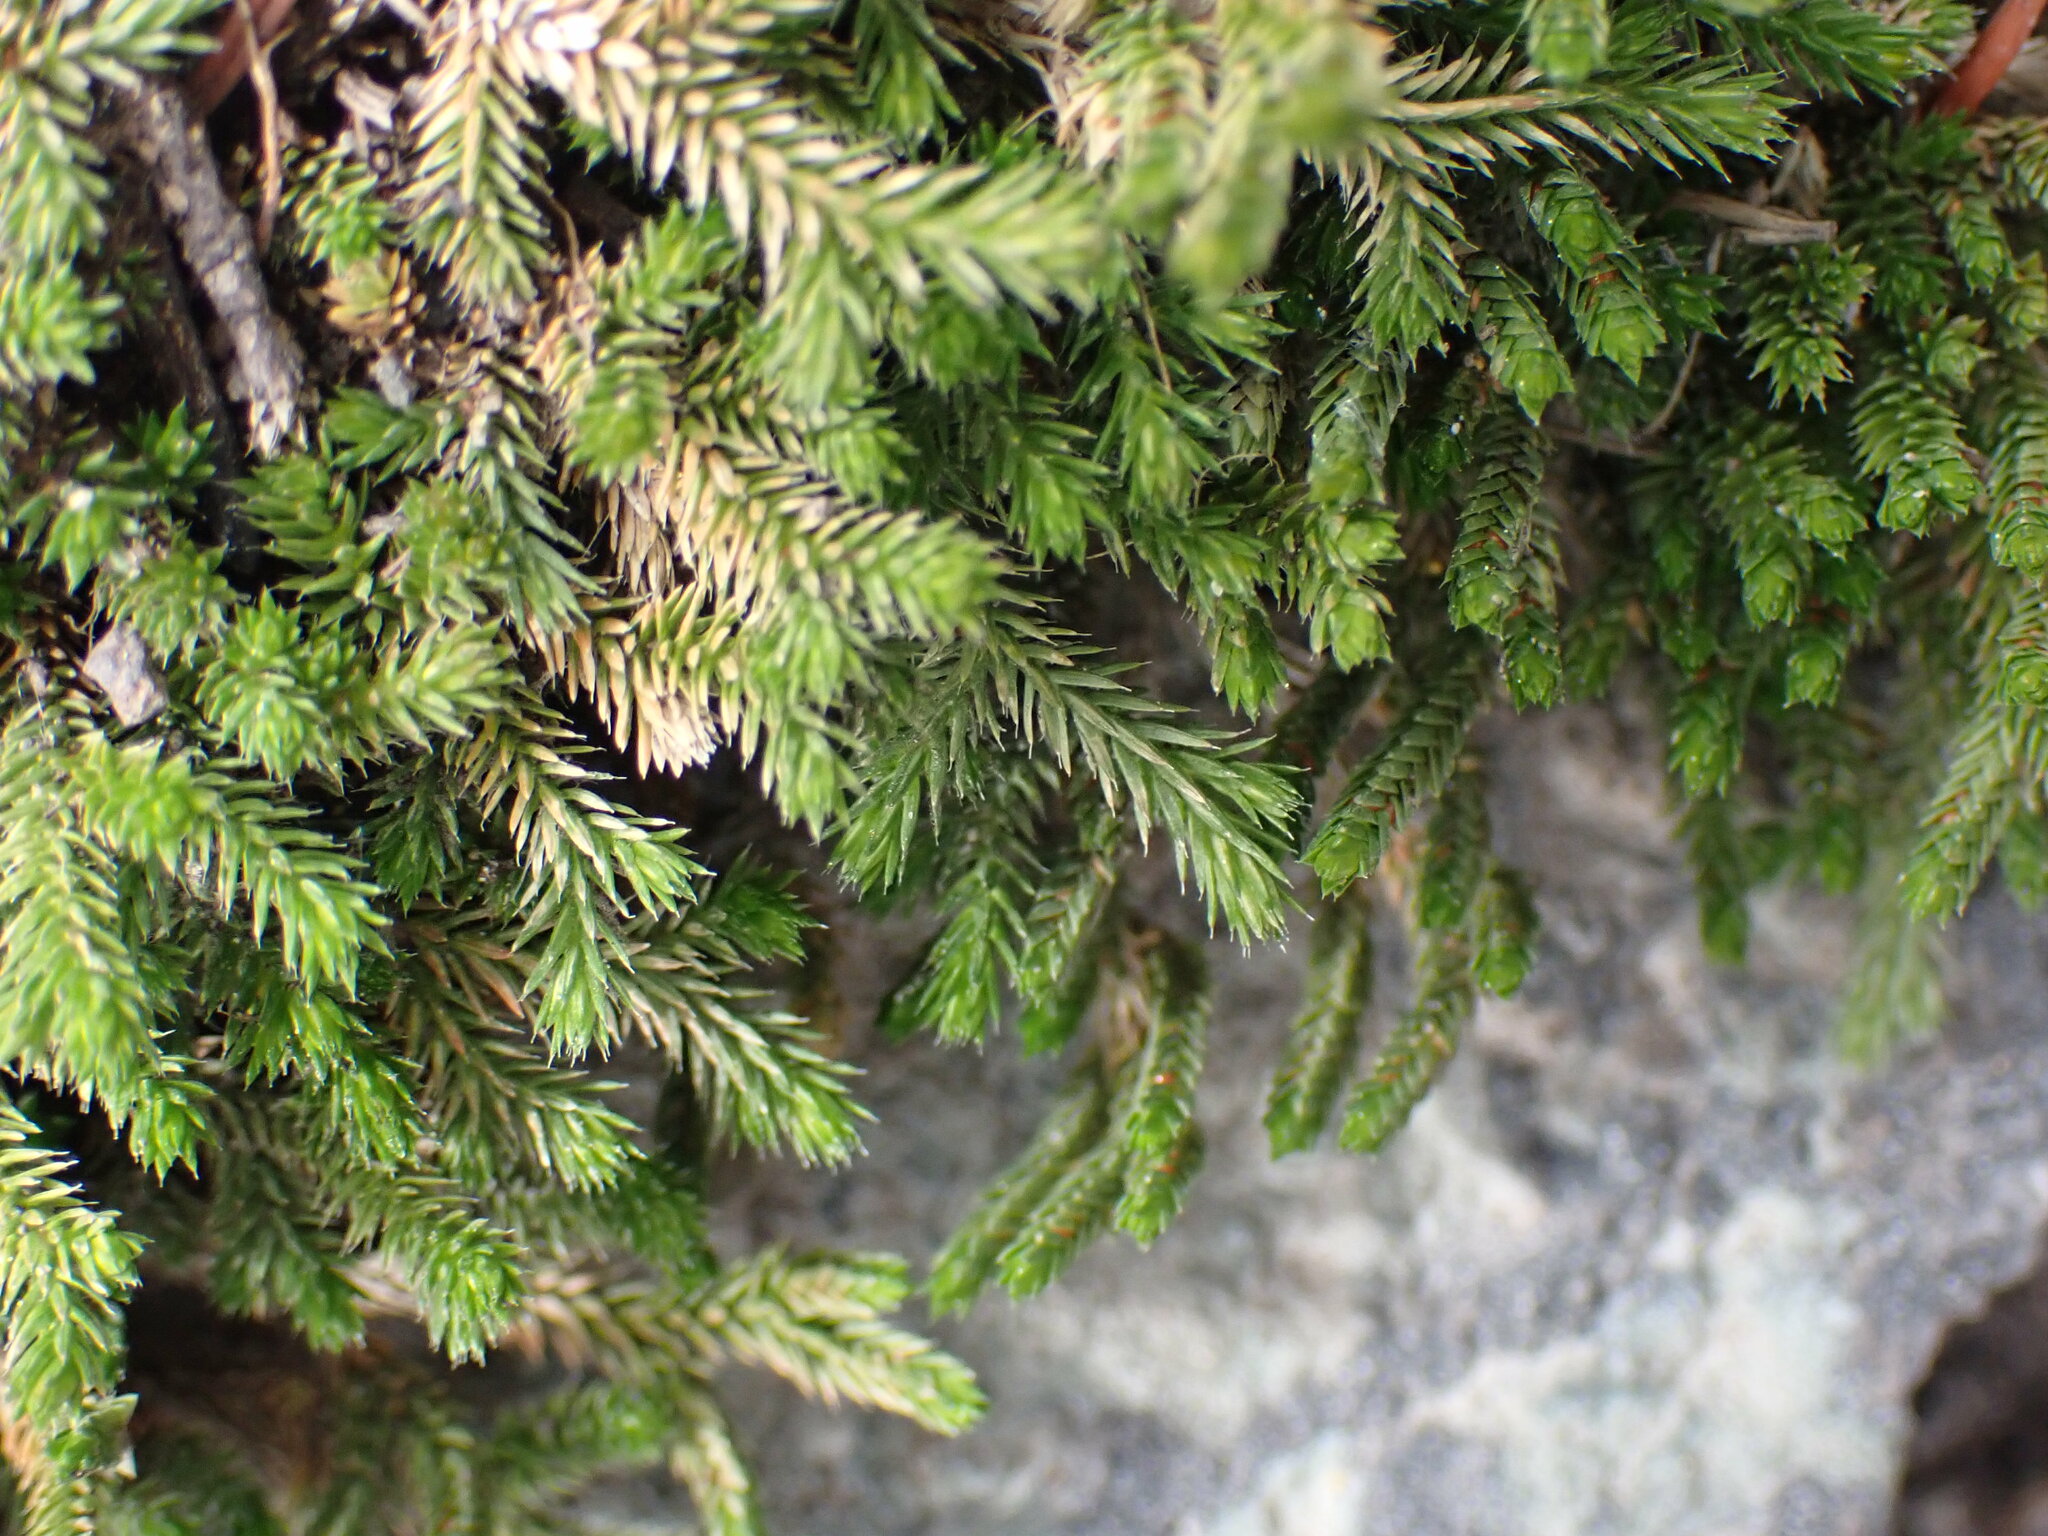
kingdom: Plantae
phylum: Tracheophyta
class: Lycopodiopsida
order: Selaginellales
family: Selaginellaceae
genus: Selaginella
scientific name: Selaginella wallacei
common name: Wallace's selaginella
